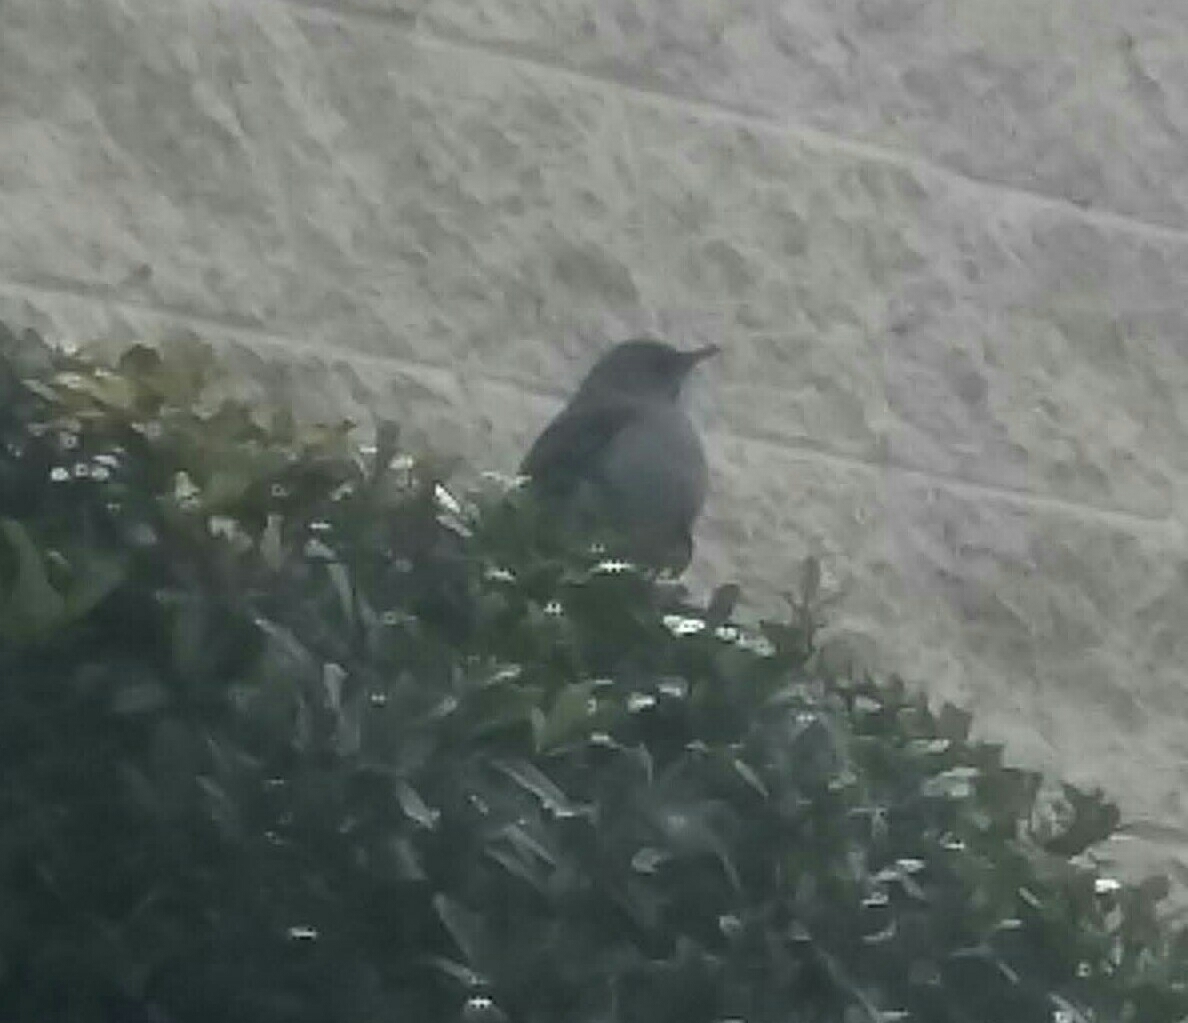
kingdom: Animalia
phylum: Chordata
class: Aves
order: Passeriformes
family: Mimidae
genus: Mimus
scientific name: Mimus polyglottos
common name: Northern mockingbird
